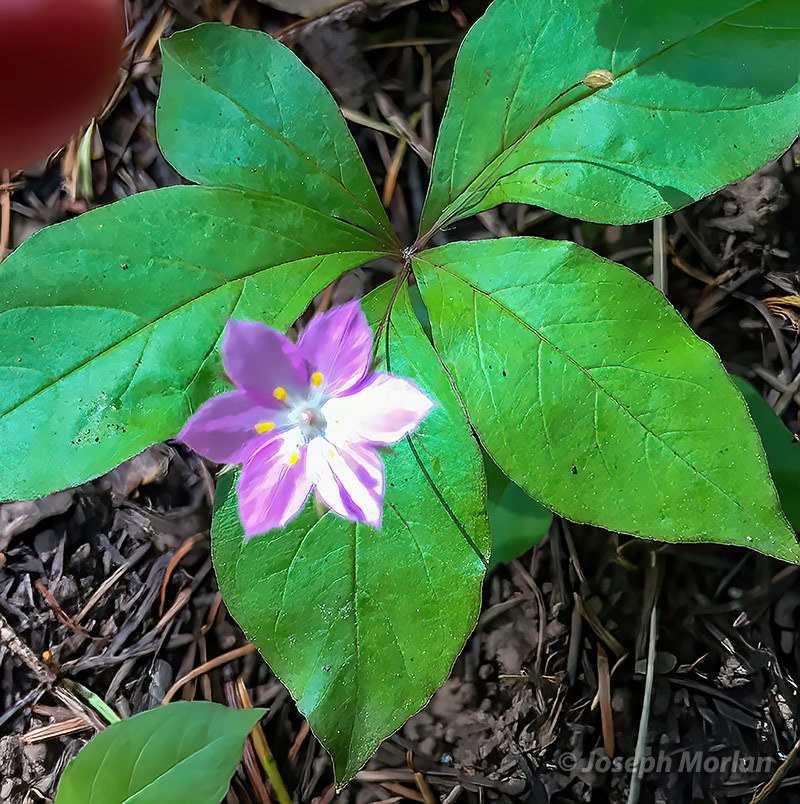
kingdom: Plantae
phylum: Tracheophyta
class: Magnoliopsida
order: Ericales
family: Primulaceae
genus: Lysimachia
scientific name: Lysimachia latifolia
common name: Pacific starflower
